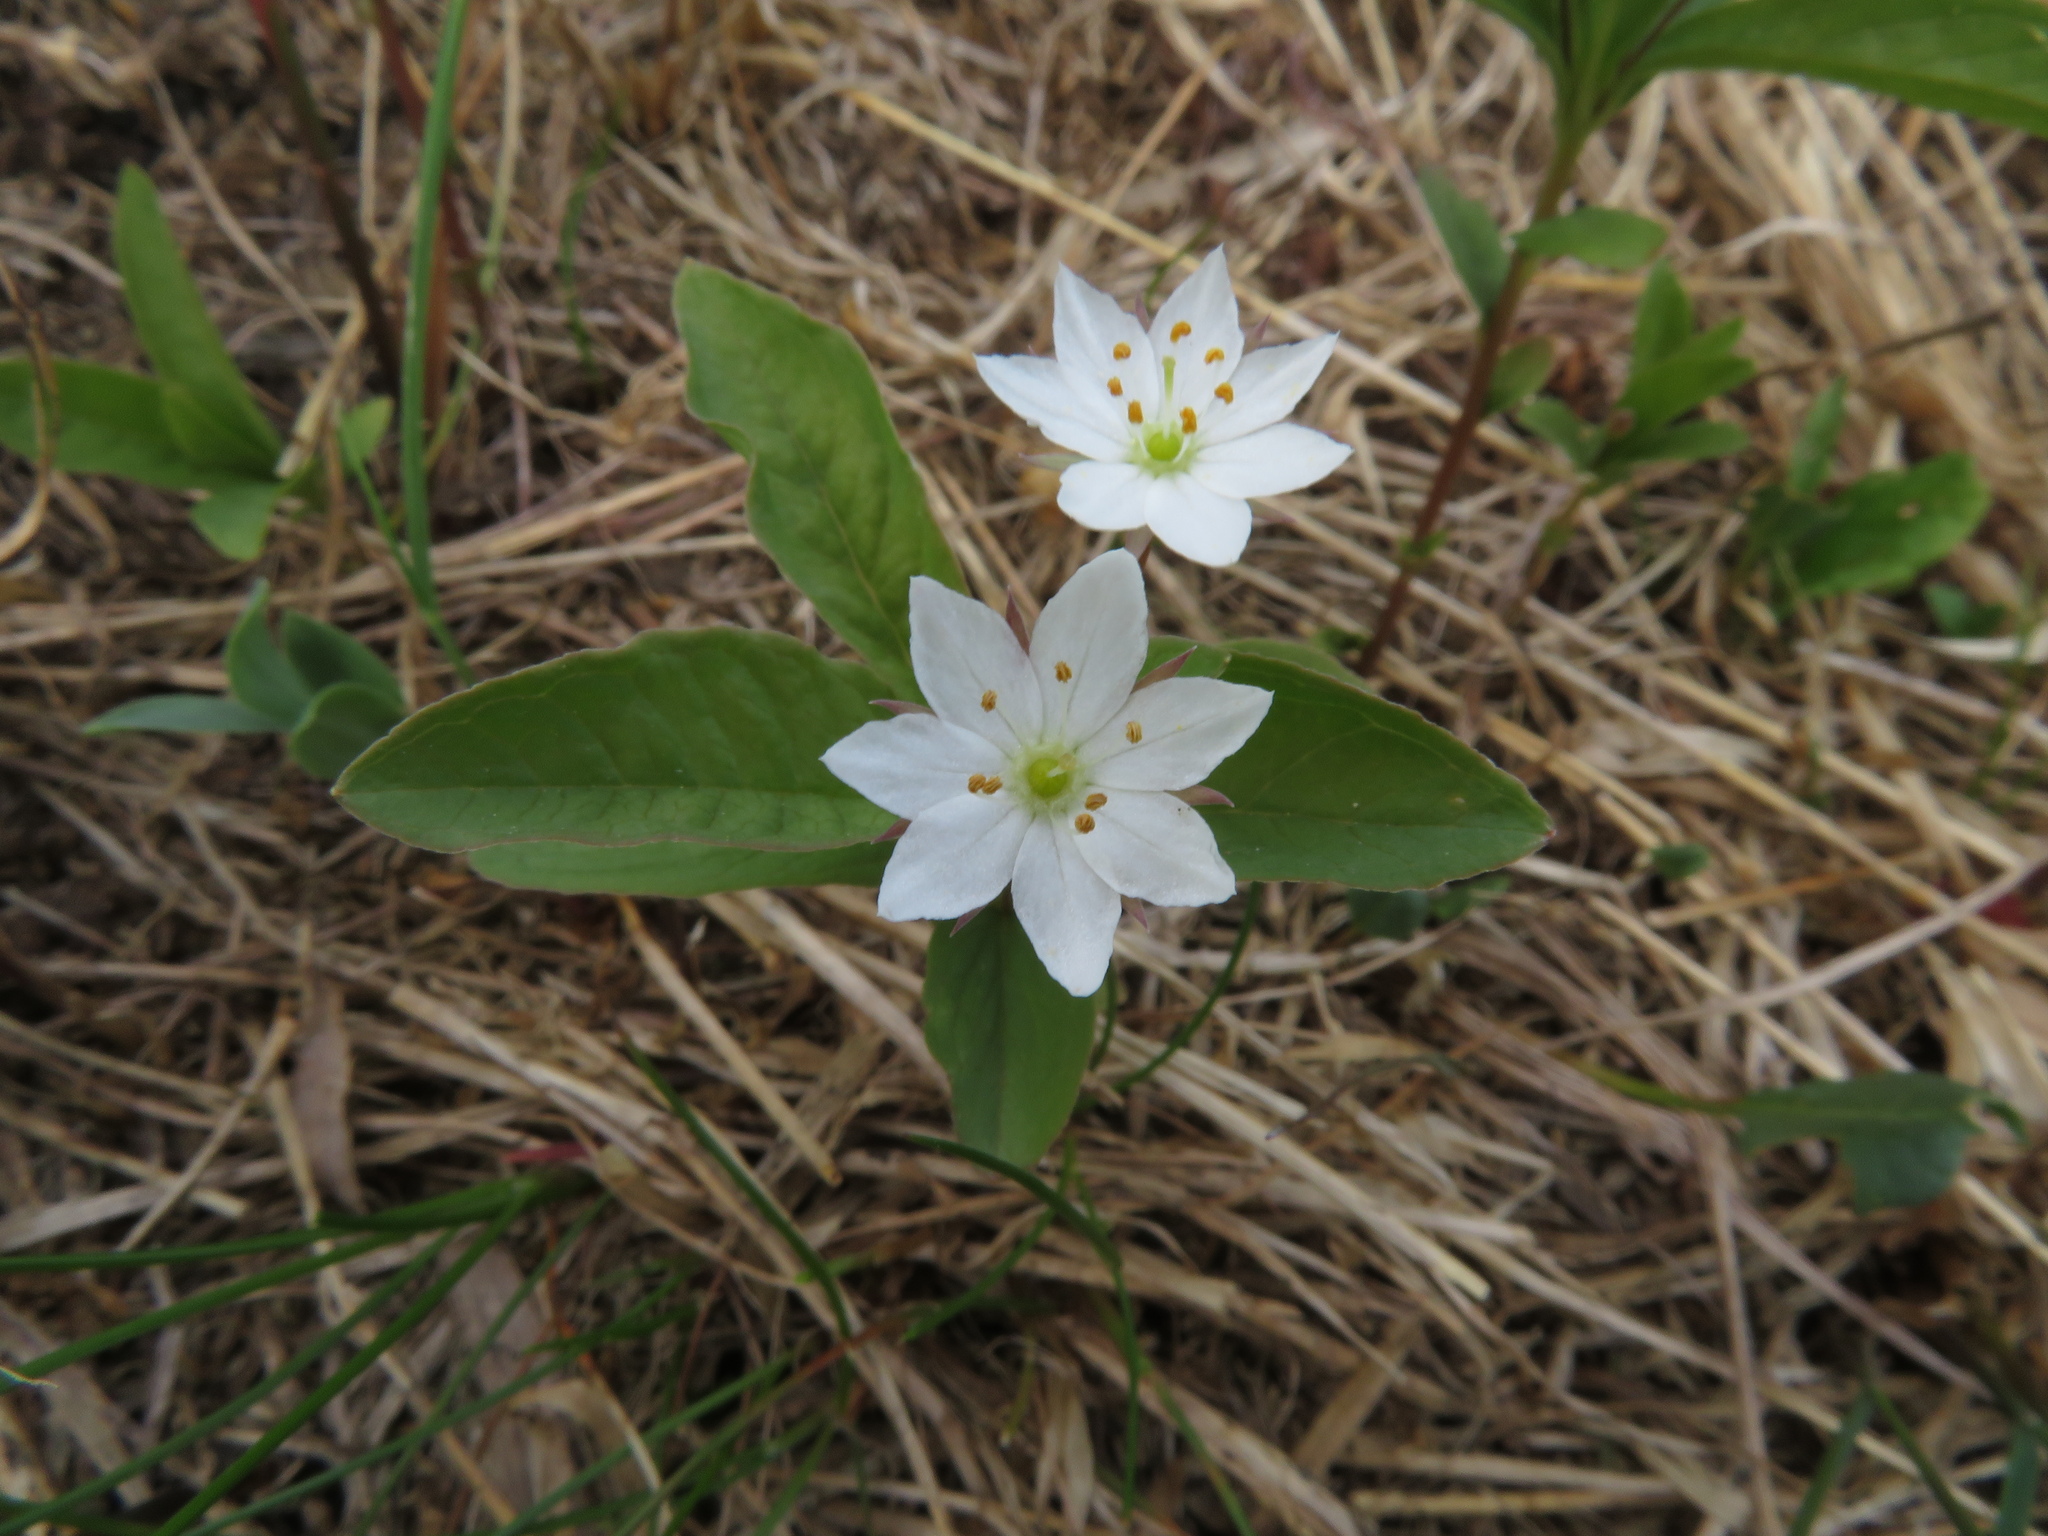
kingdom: Plantae
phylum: Tracheophyta
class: Magnoliopsida
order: Ericales
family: Primulaceae
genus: Lysimachia
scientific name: Lysimachia europaea
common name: Arctic starflower
